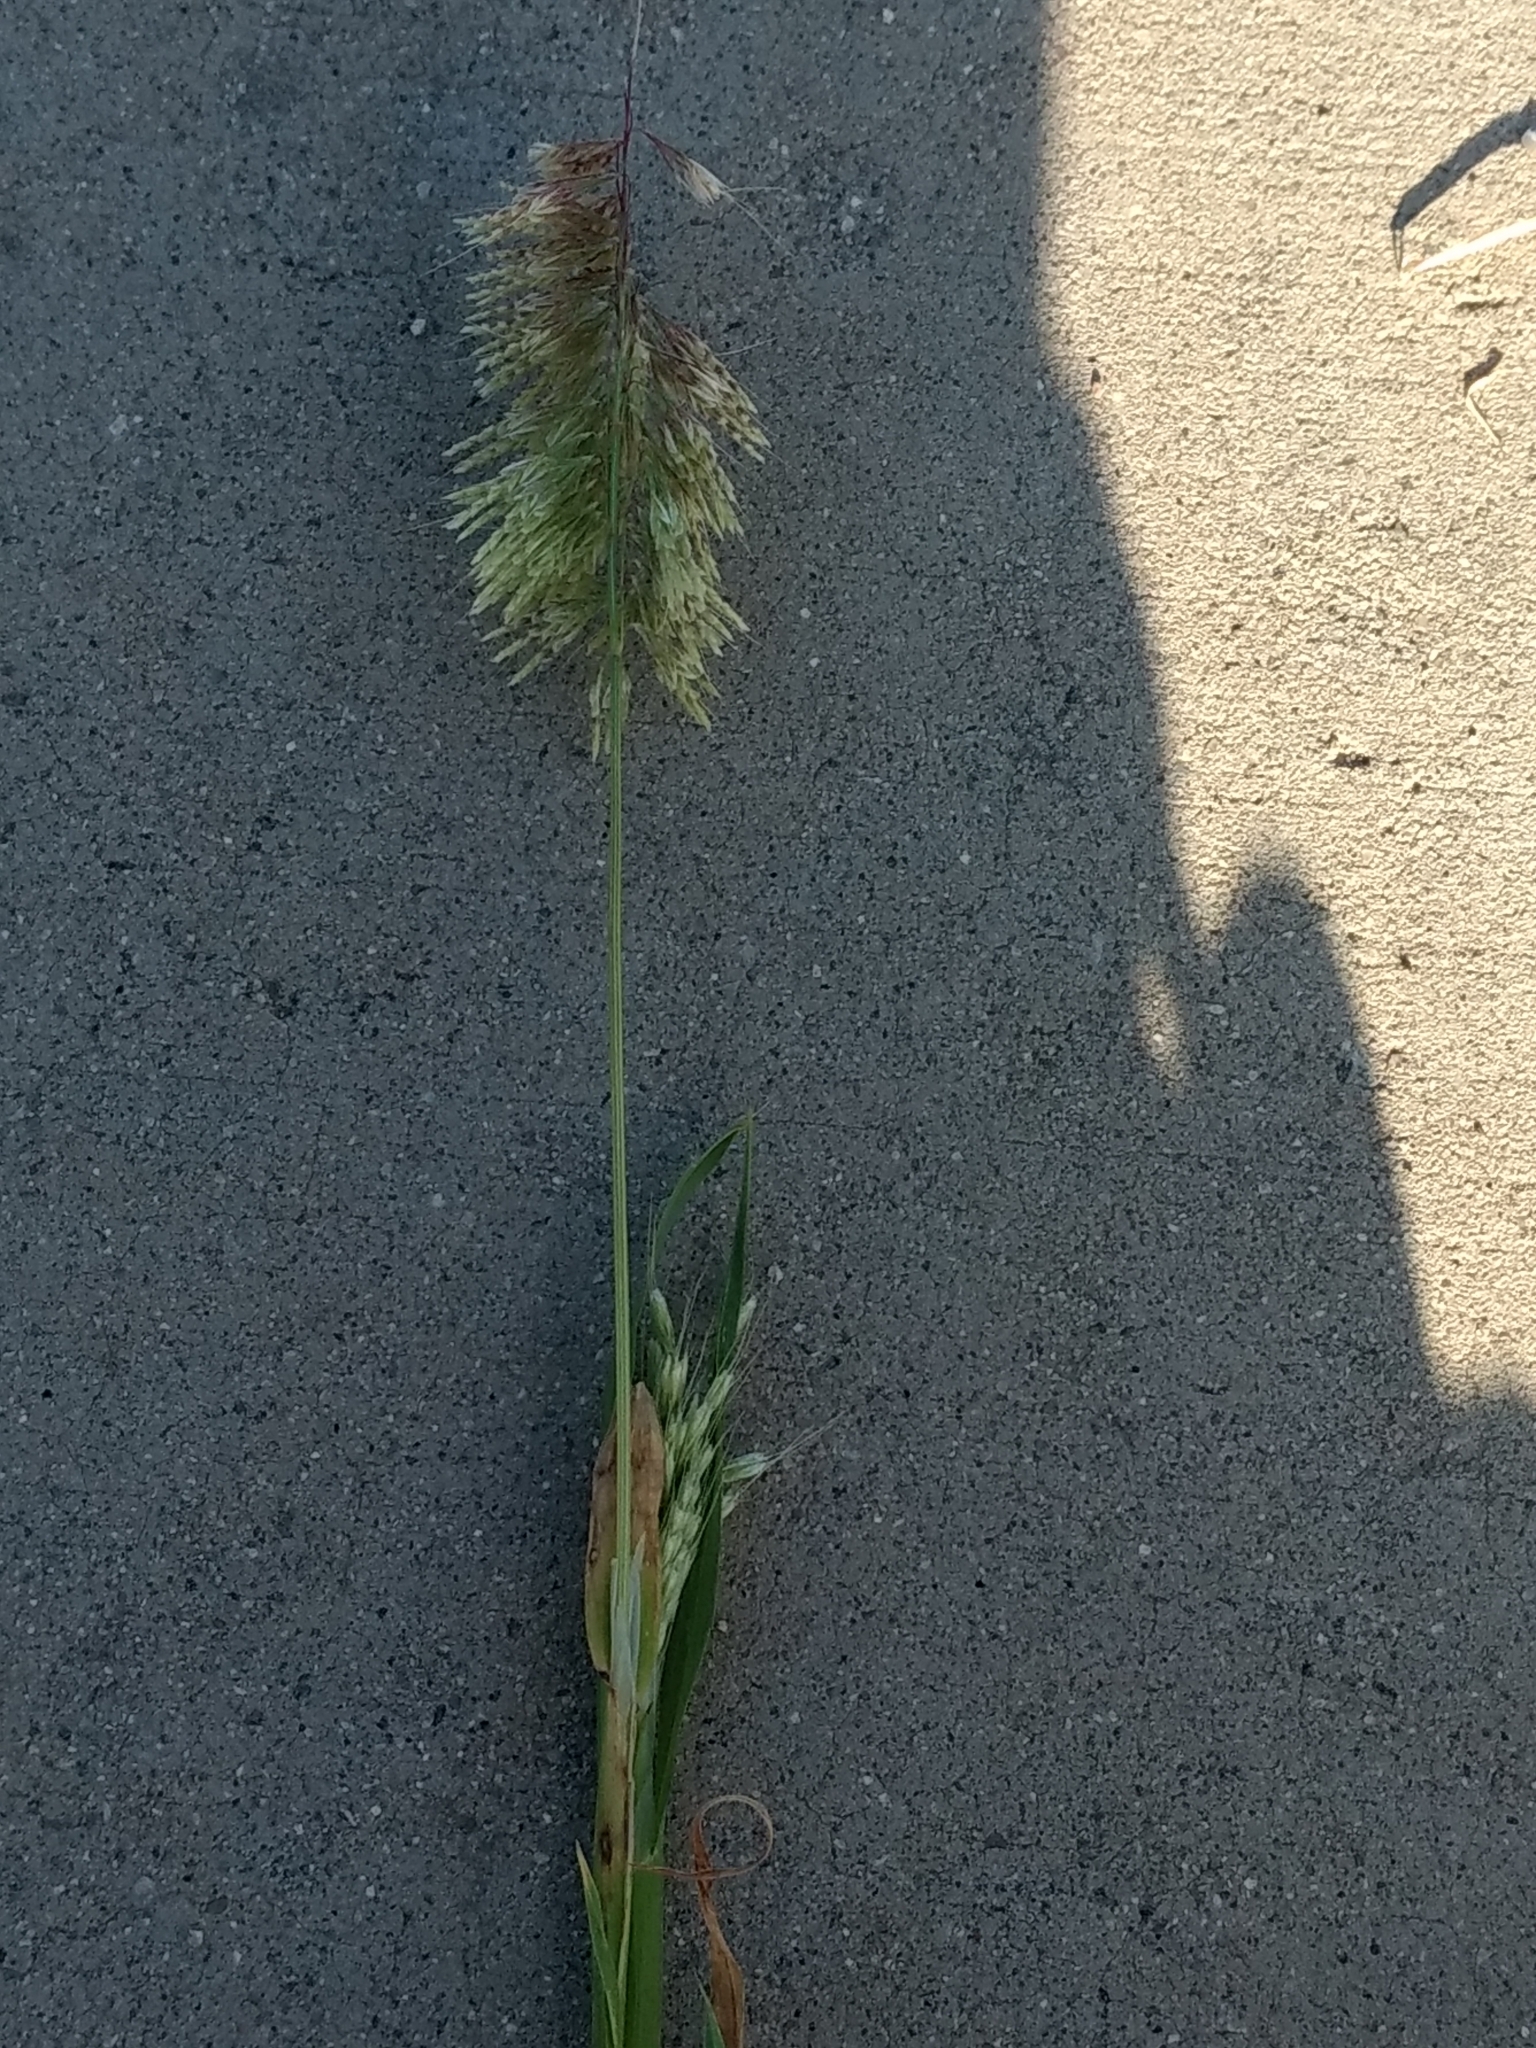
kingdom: Plantae
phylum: Tracheophyta
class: Liliopsida
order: Poales
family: Poaceae
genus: Lamarckia
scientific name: Lamarckia aurea
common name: Golden dog's-tail
